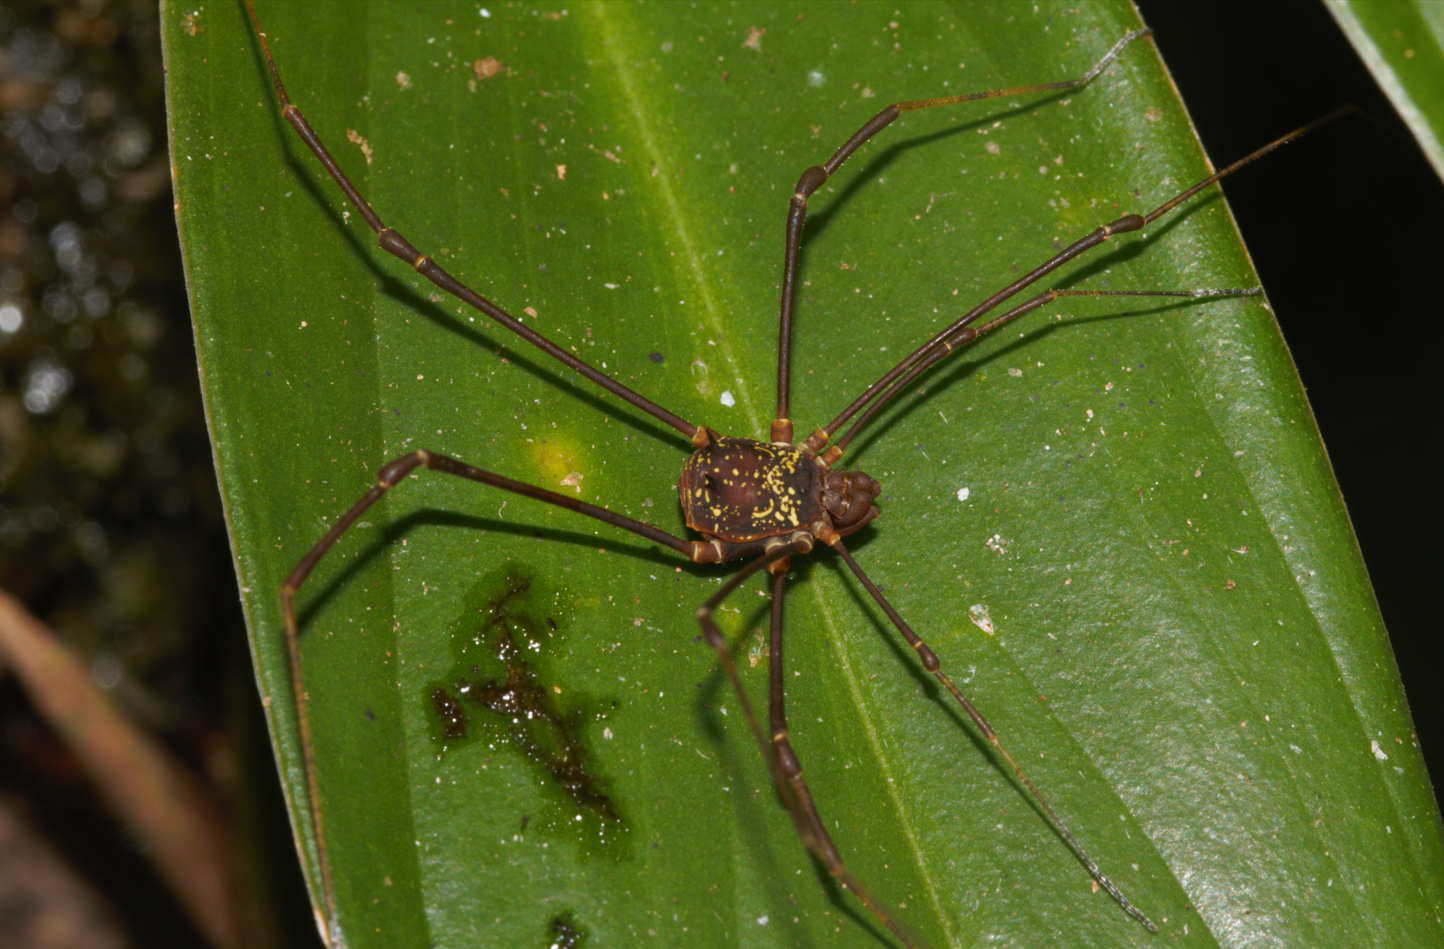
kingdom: Animalia
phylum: Arthropoda
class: Arachnida
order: Opiliones
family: Cosmetidae
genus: Paecilaema
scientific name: Paecilaema c-insignitum
